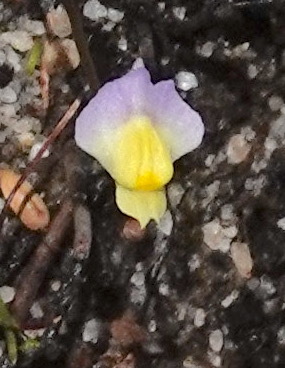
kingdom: Plantae
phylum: Tracheophyta
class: Magnoliopsida
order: Lamiales
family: Lentibulariaceae
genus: Utricularia
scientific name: Utricularia bisquamata
